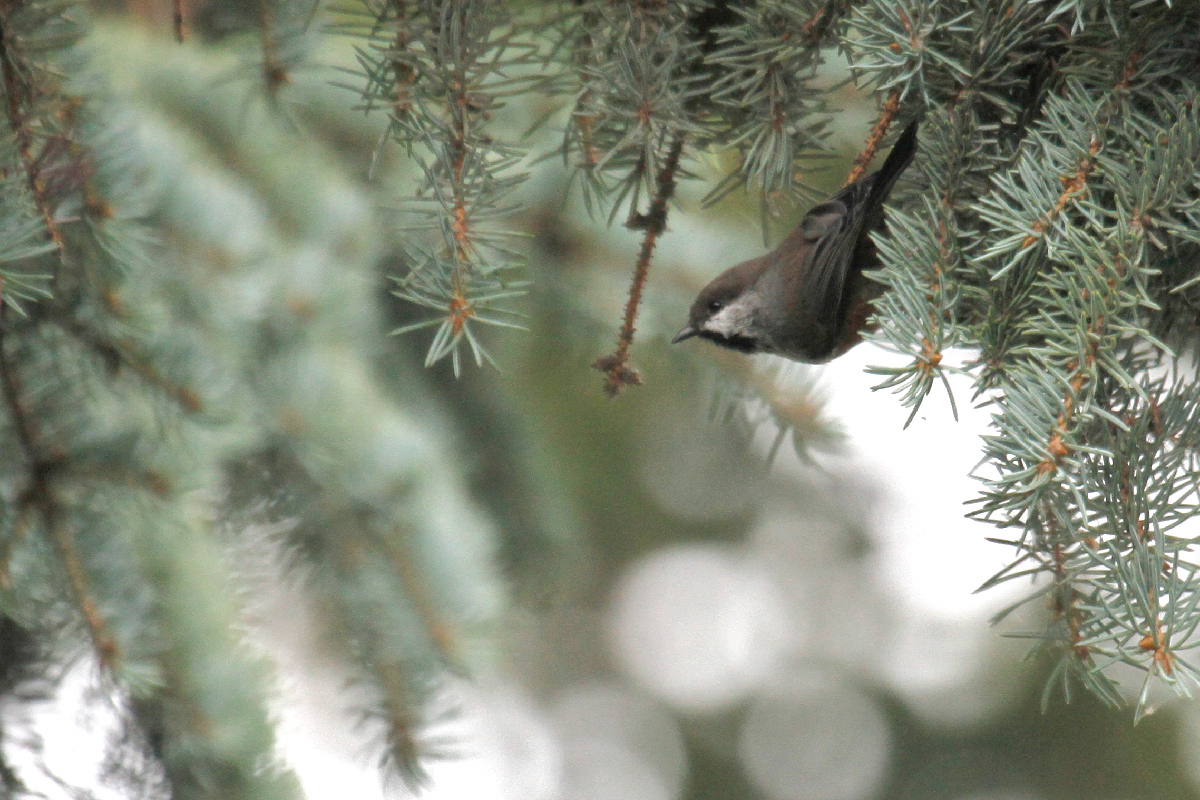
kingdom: Animalia
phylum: Chordata
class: Aves
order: Passeriformes
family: Paridae
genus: Poecile
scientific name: Poecile hudsonicus
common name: Boreal chickadee
